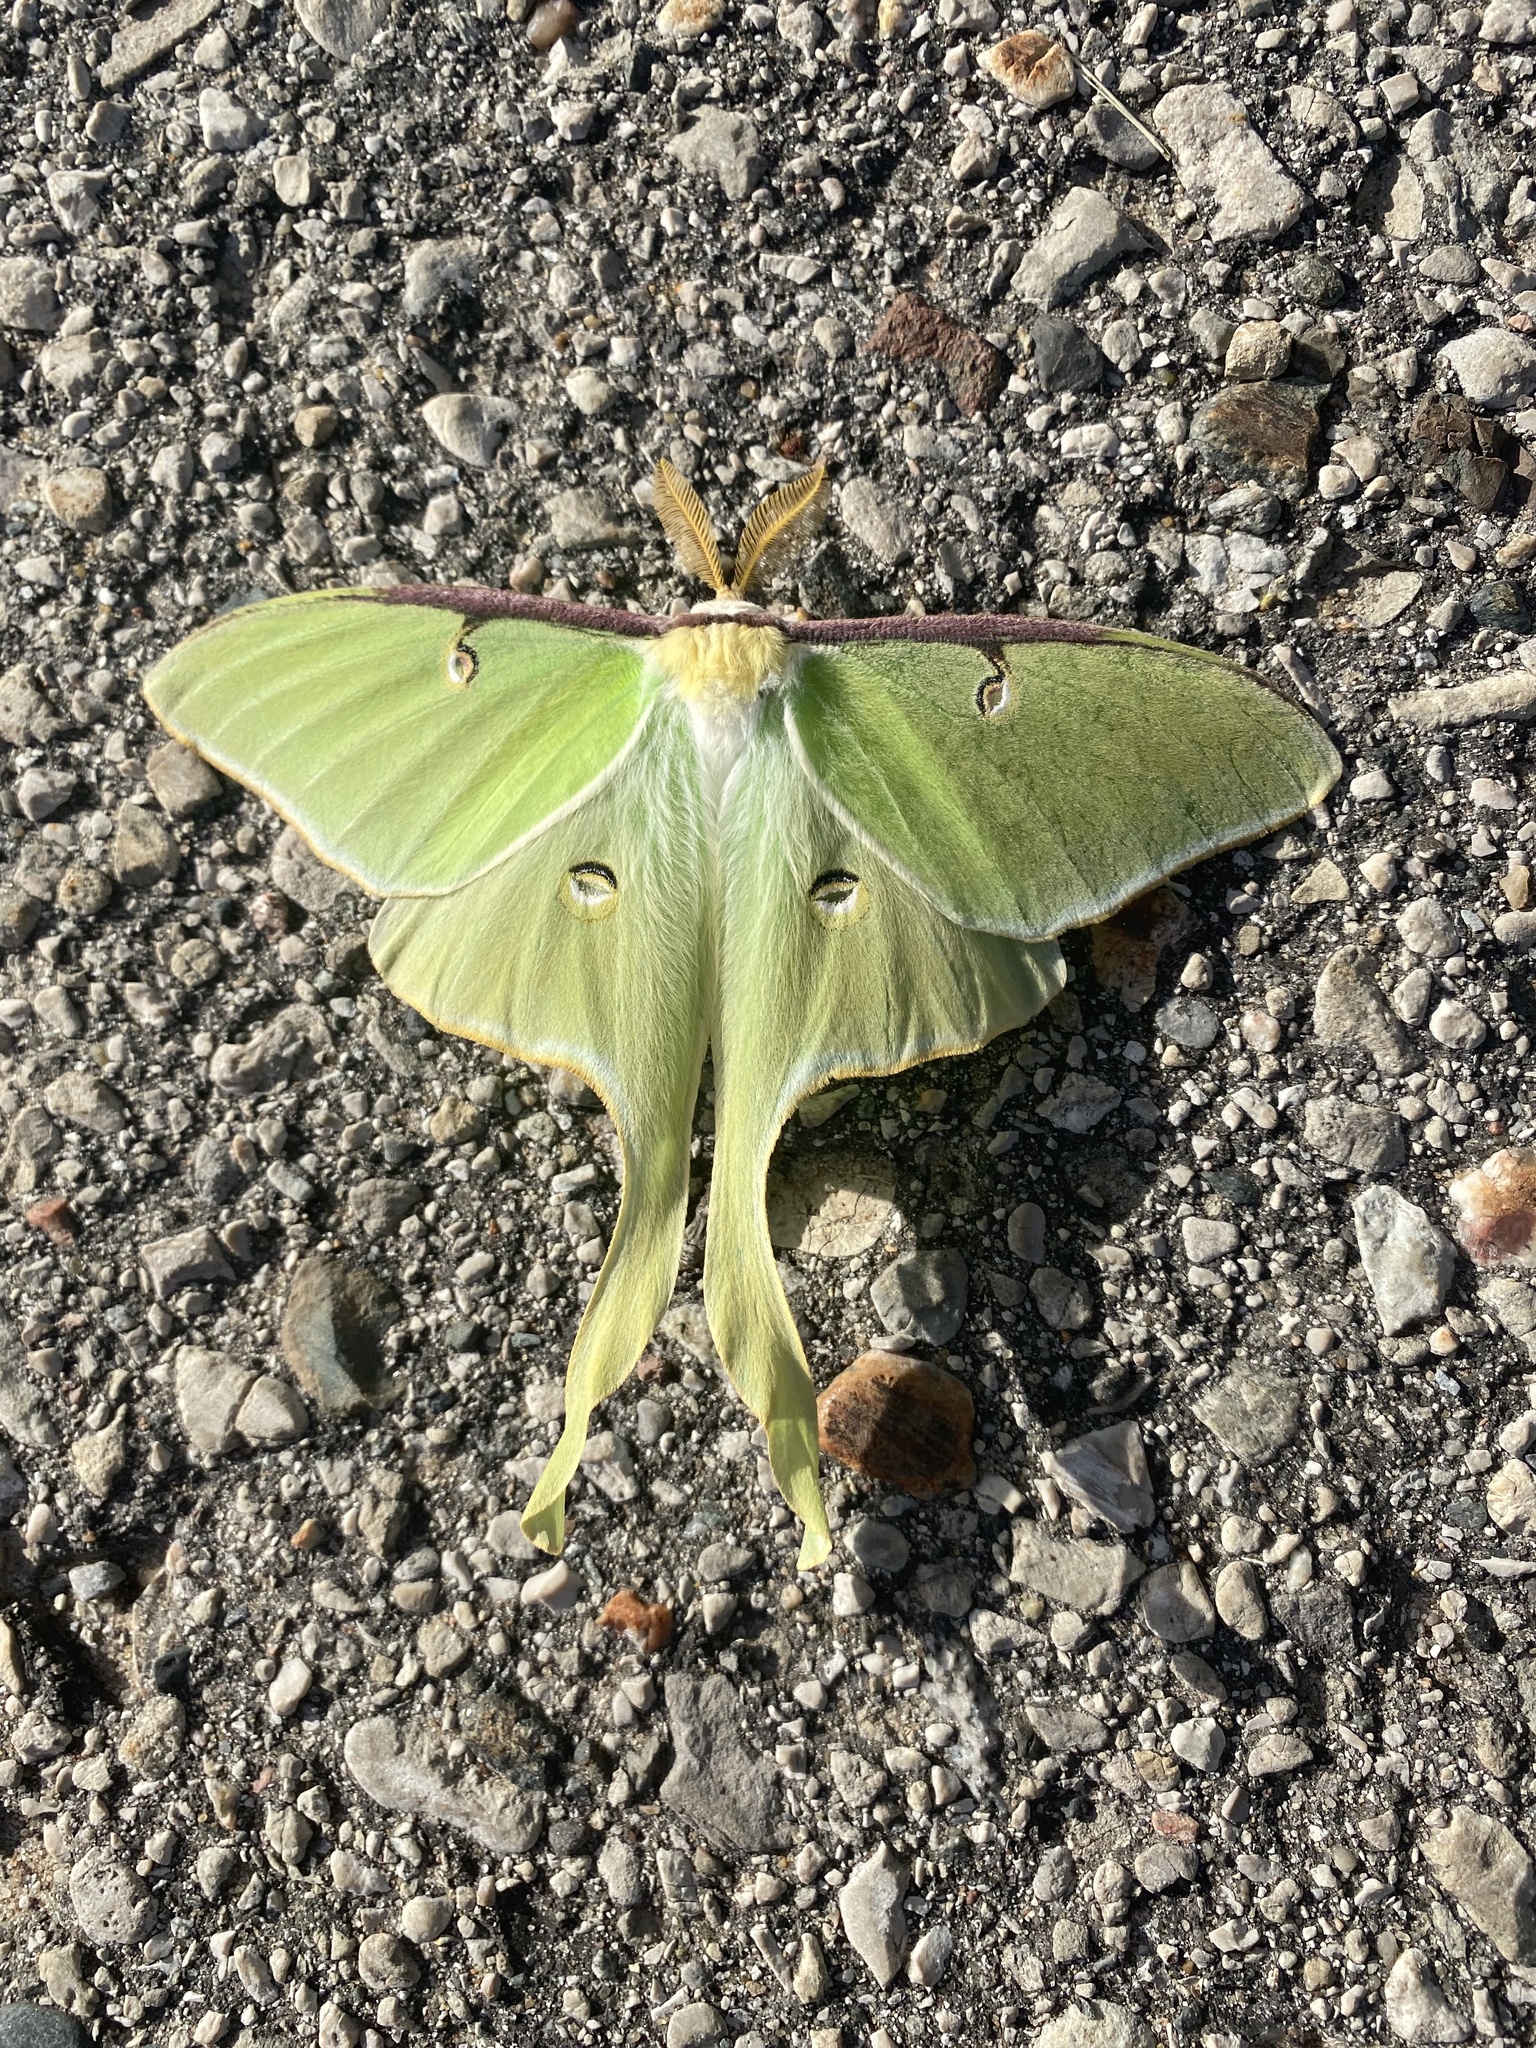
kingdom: Animalia
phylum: Arthropoda
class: Insecta
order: Lepidoptera
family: Saturniidae
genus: Actias
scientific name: Actias luna
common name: Luna moth
